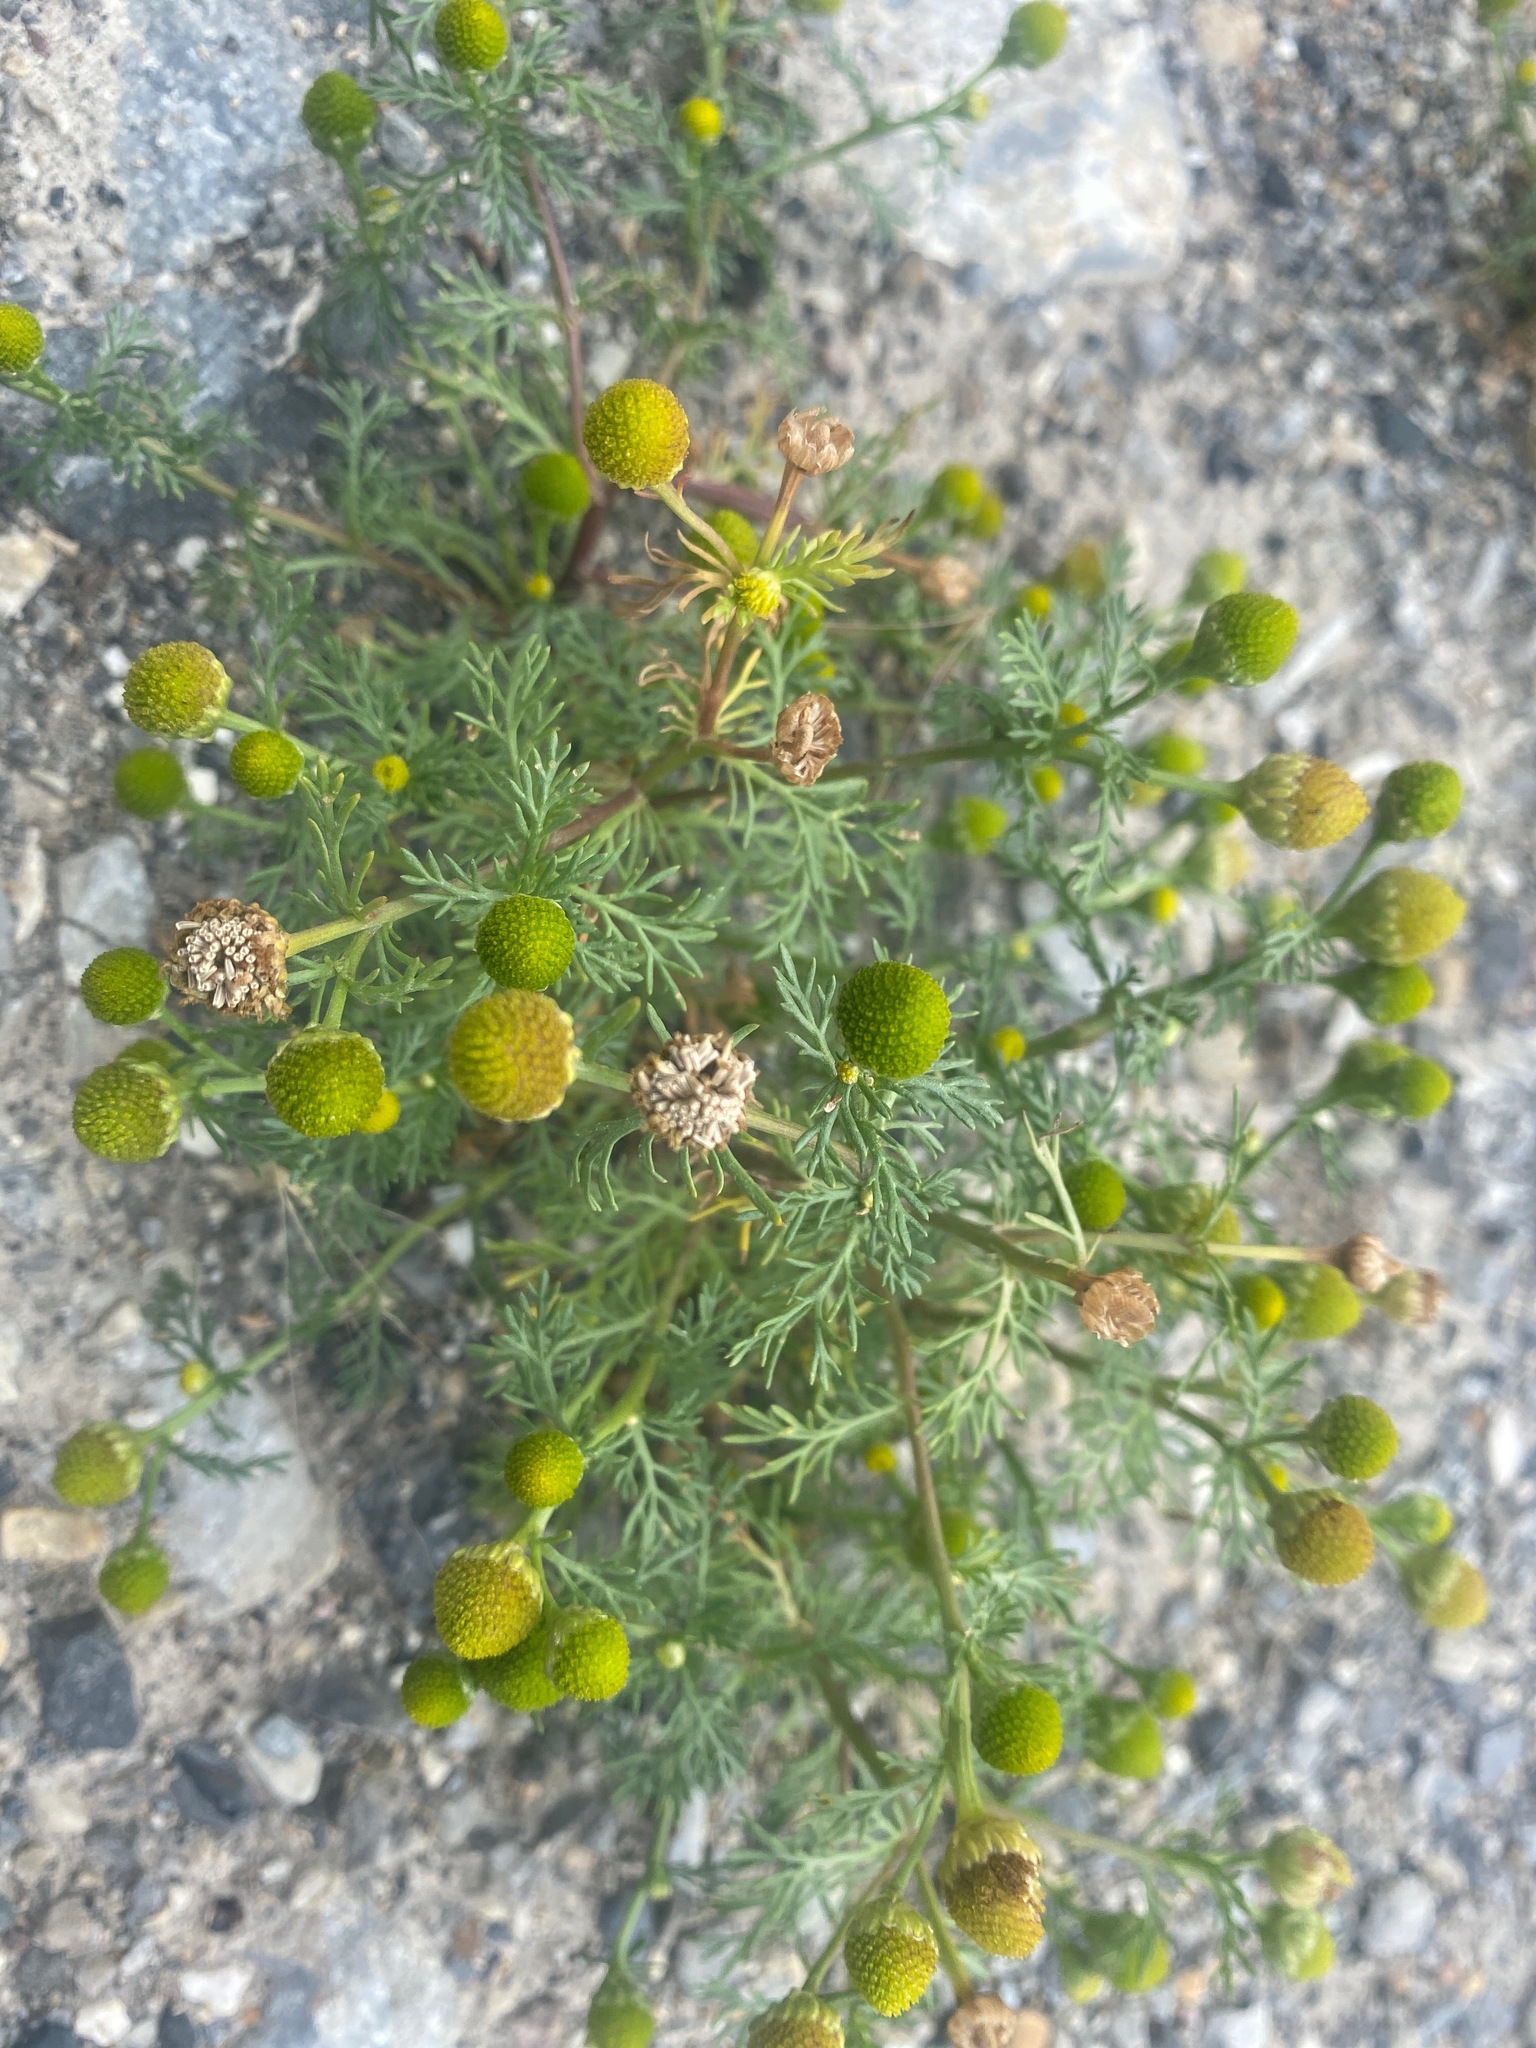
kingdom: Plantae
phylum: Tracheophyta
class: Magnoliopsida
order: Asterales
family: Asteraceae
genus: Matricaria
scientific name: Matricaria discoidea
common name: Disc mayweed
